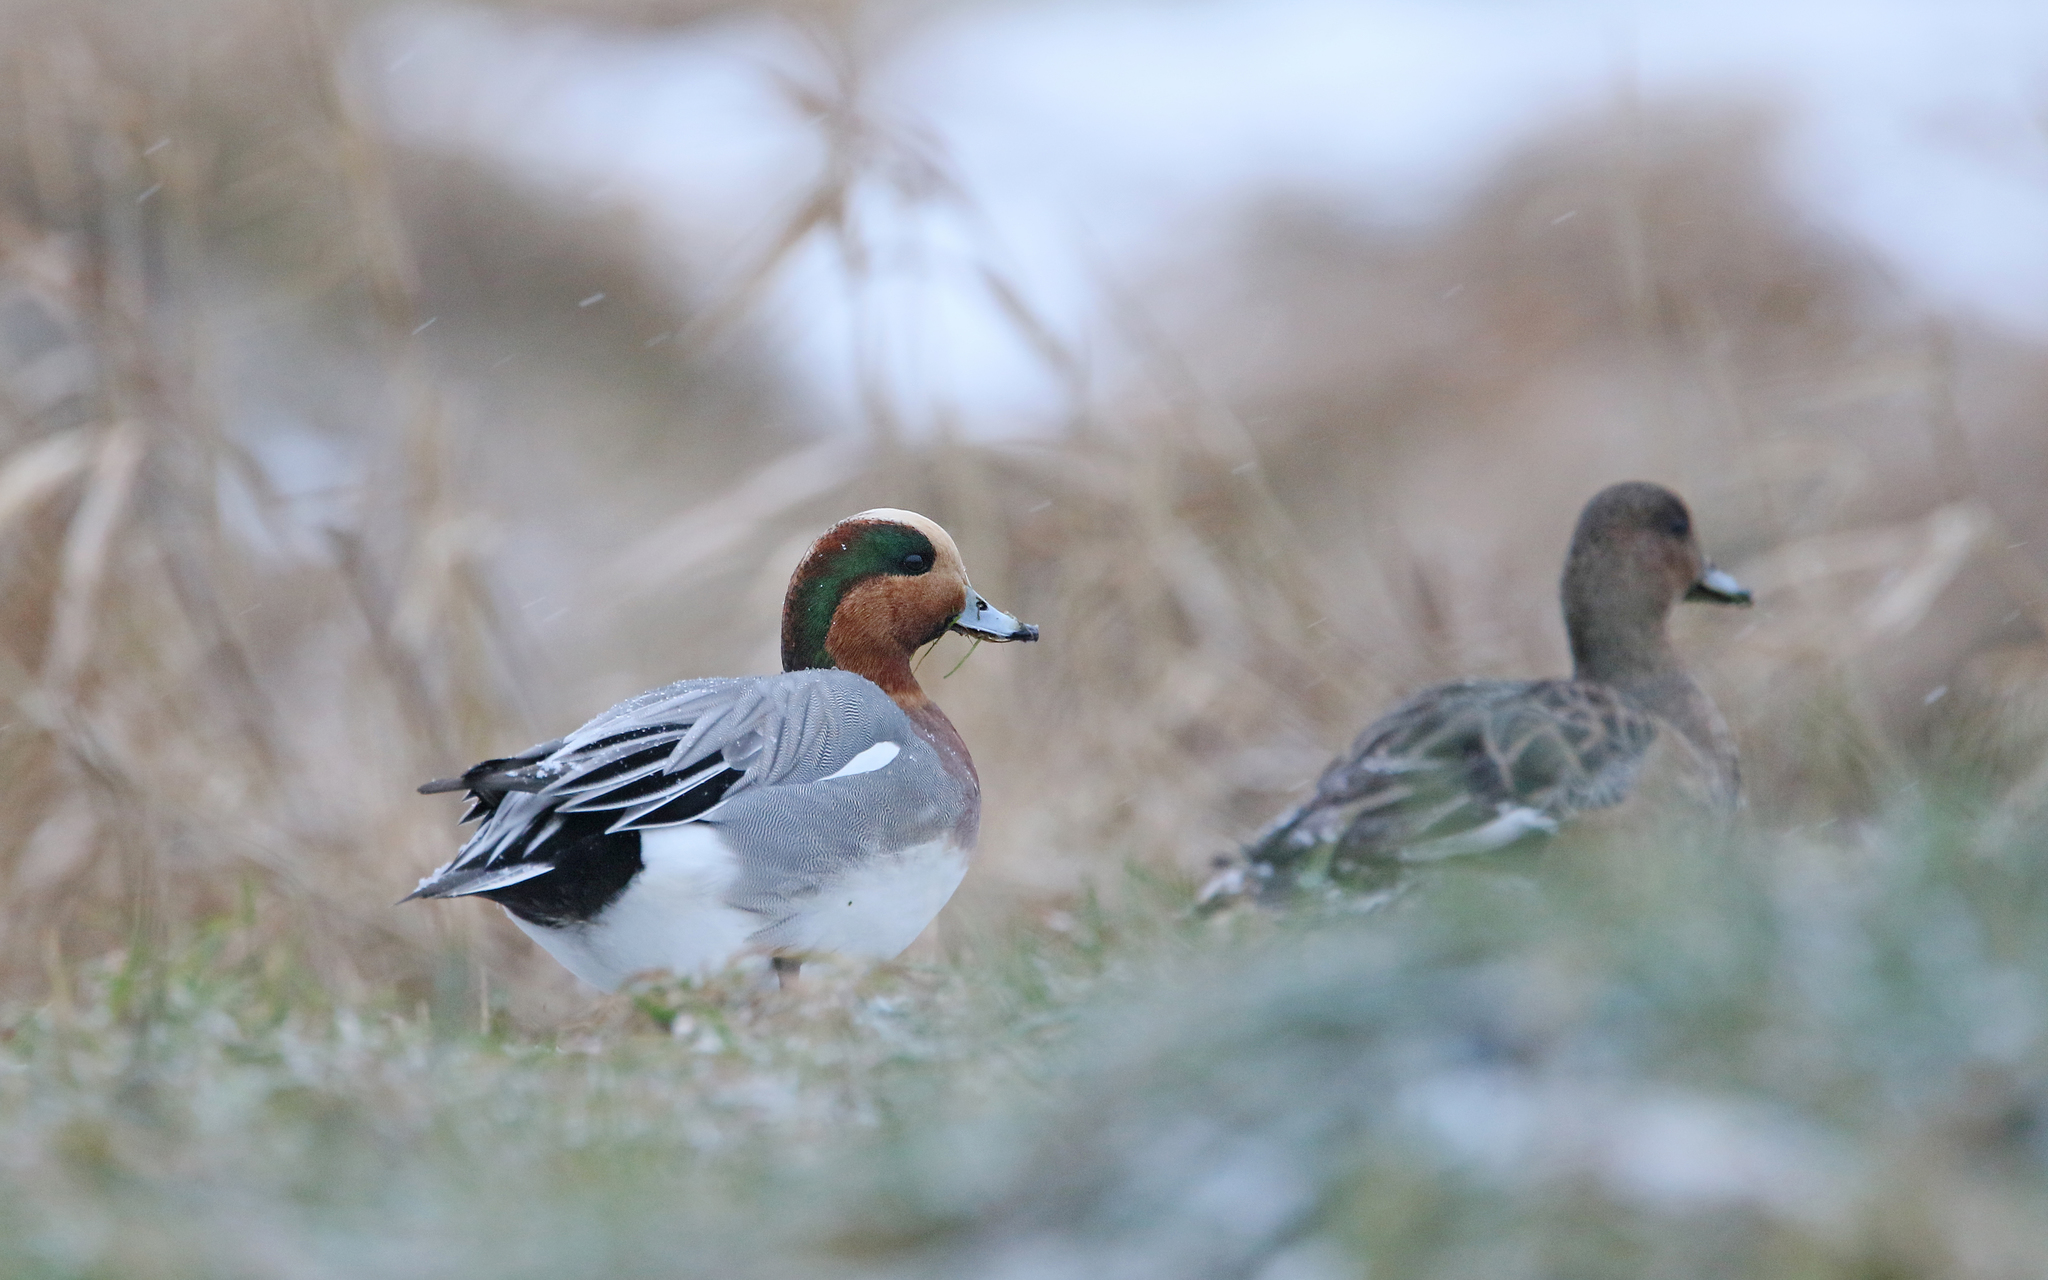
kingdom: Animalia
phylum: Chordata
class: Aves
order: Anseriformes
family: Anatidae
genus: Mareca
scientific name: Mareca penelope
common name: Eurasian wigeon
